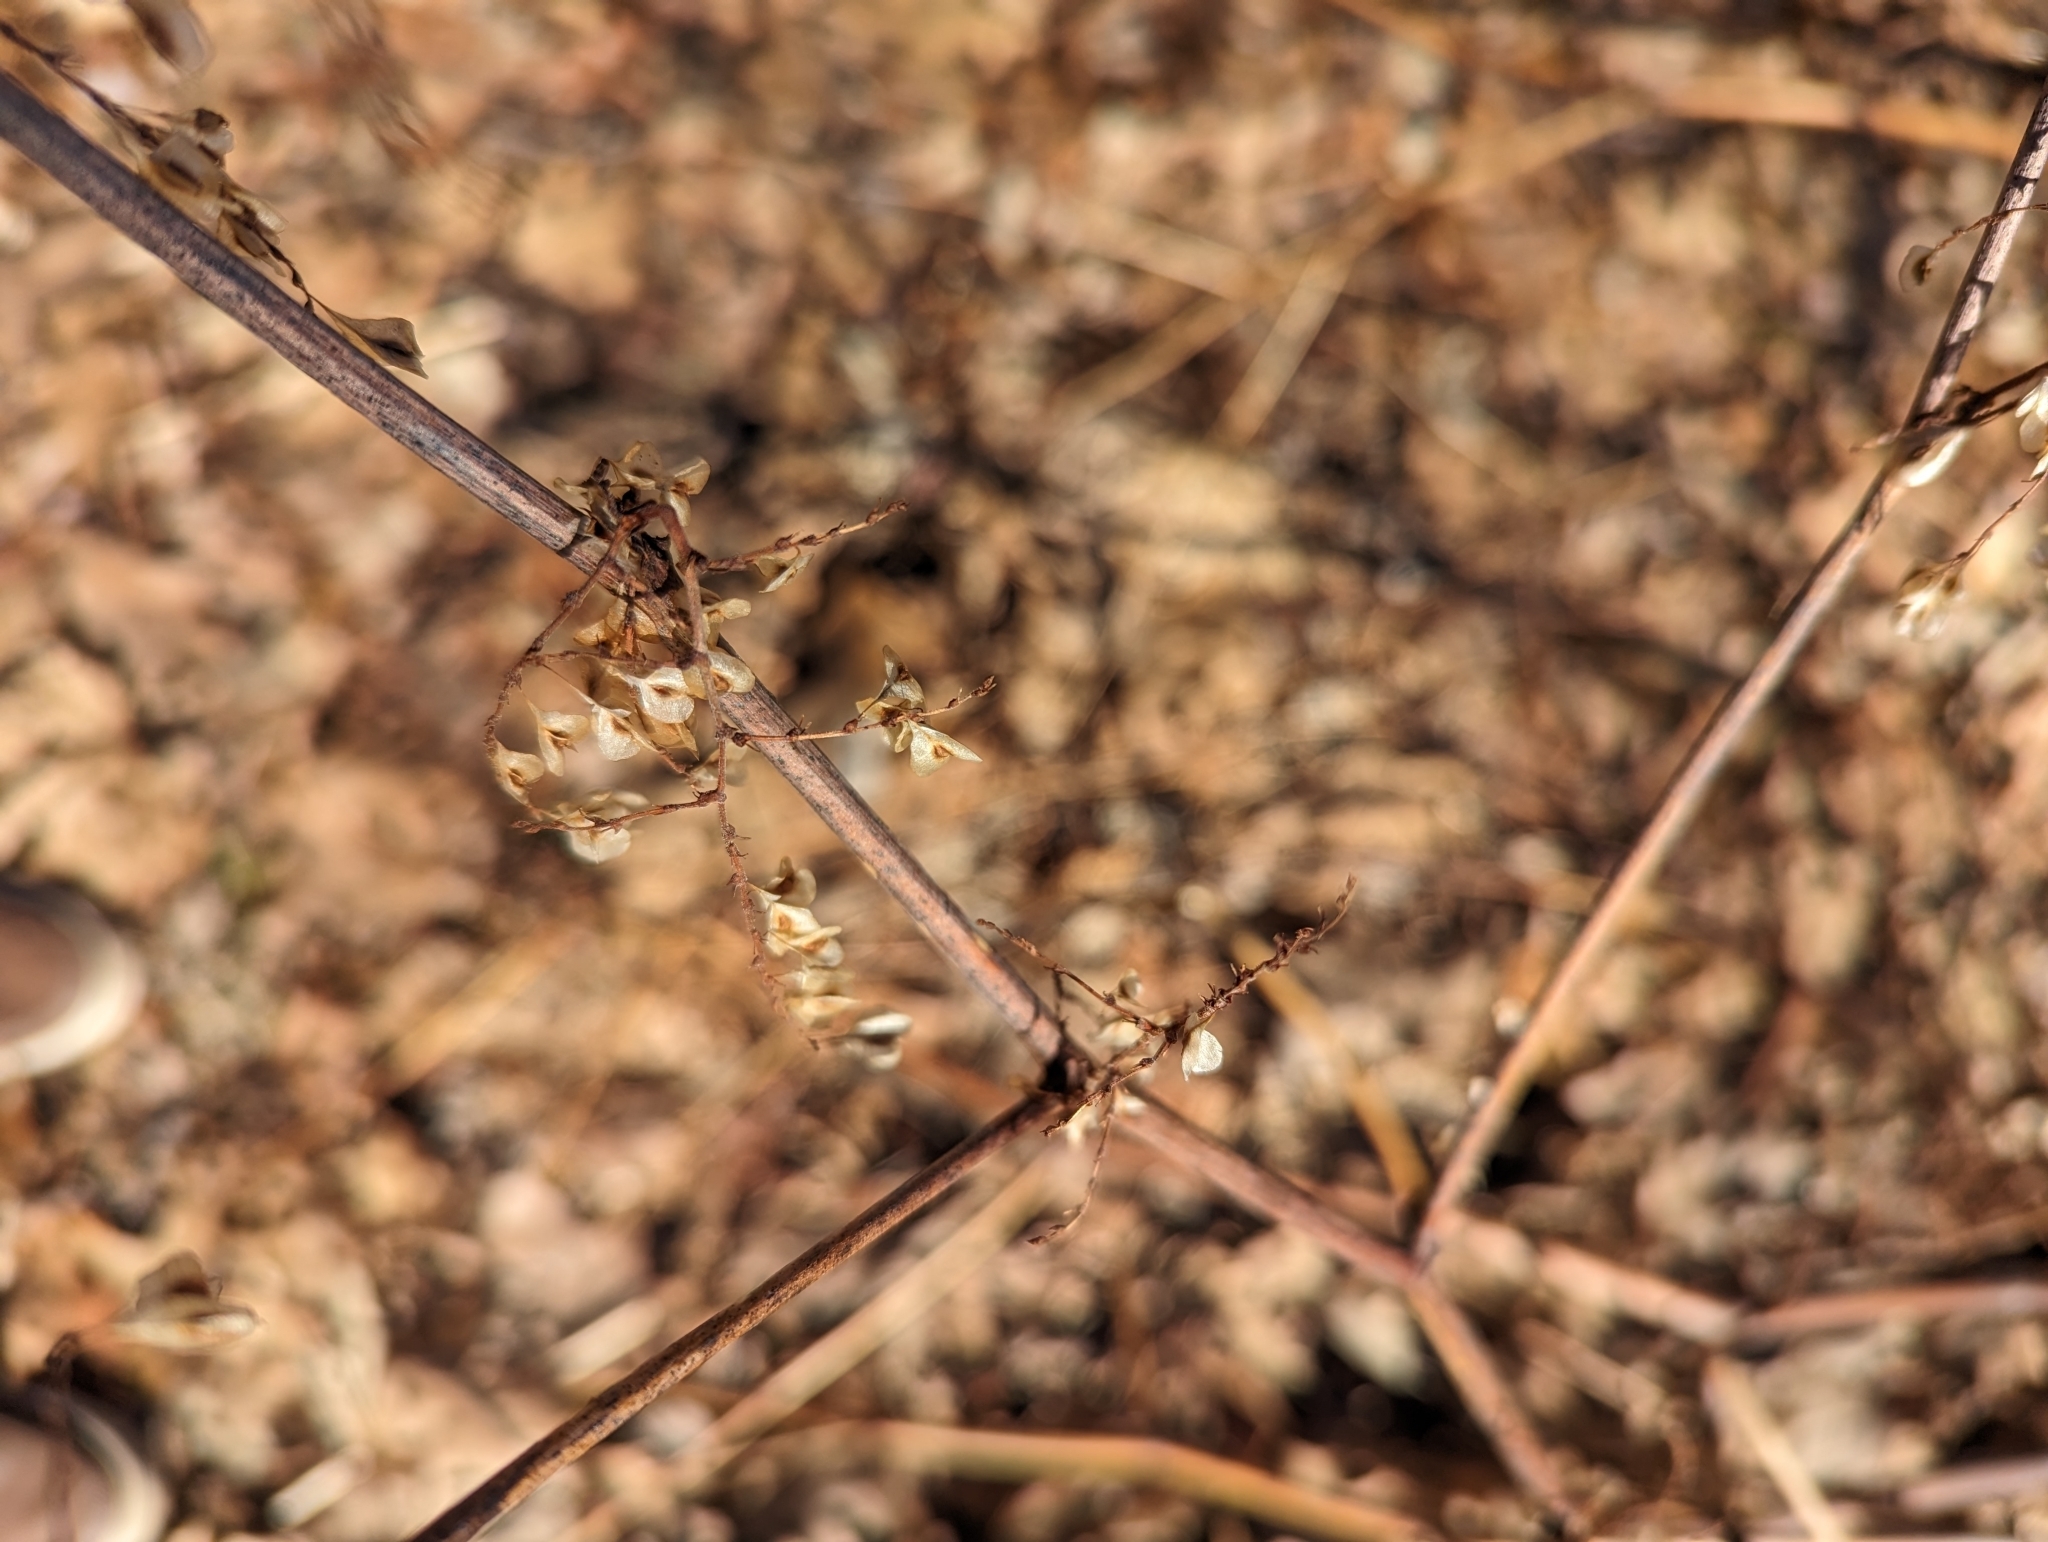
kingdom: Plantae
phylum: Tracheophyta
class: Magnoliopsida
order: Caryophyllales
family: Polygonaceae
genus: Reynoutria
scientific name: Reynoutria japonica
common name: Japanese knotweed
